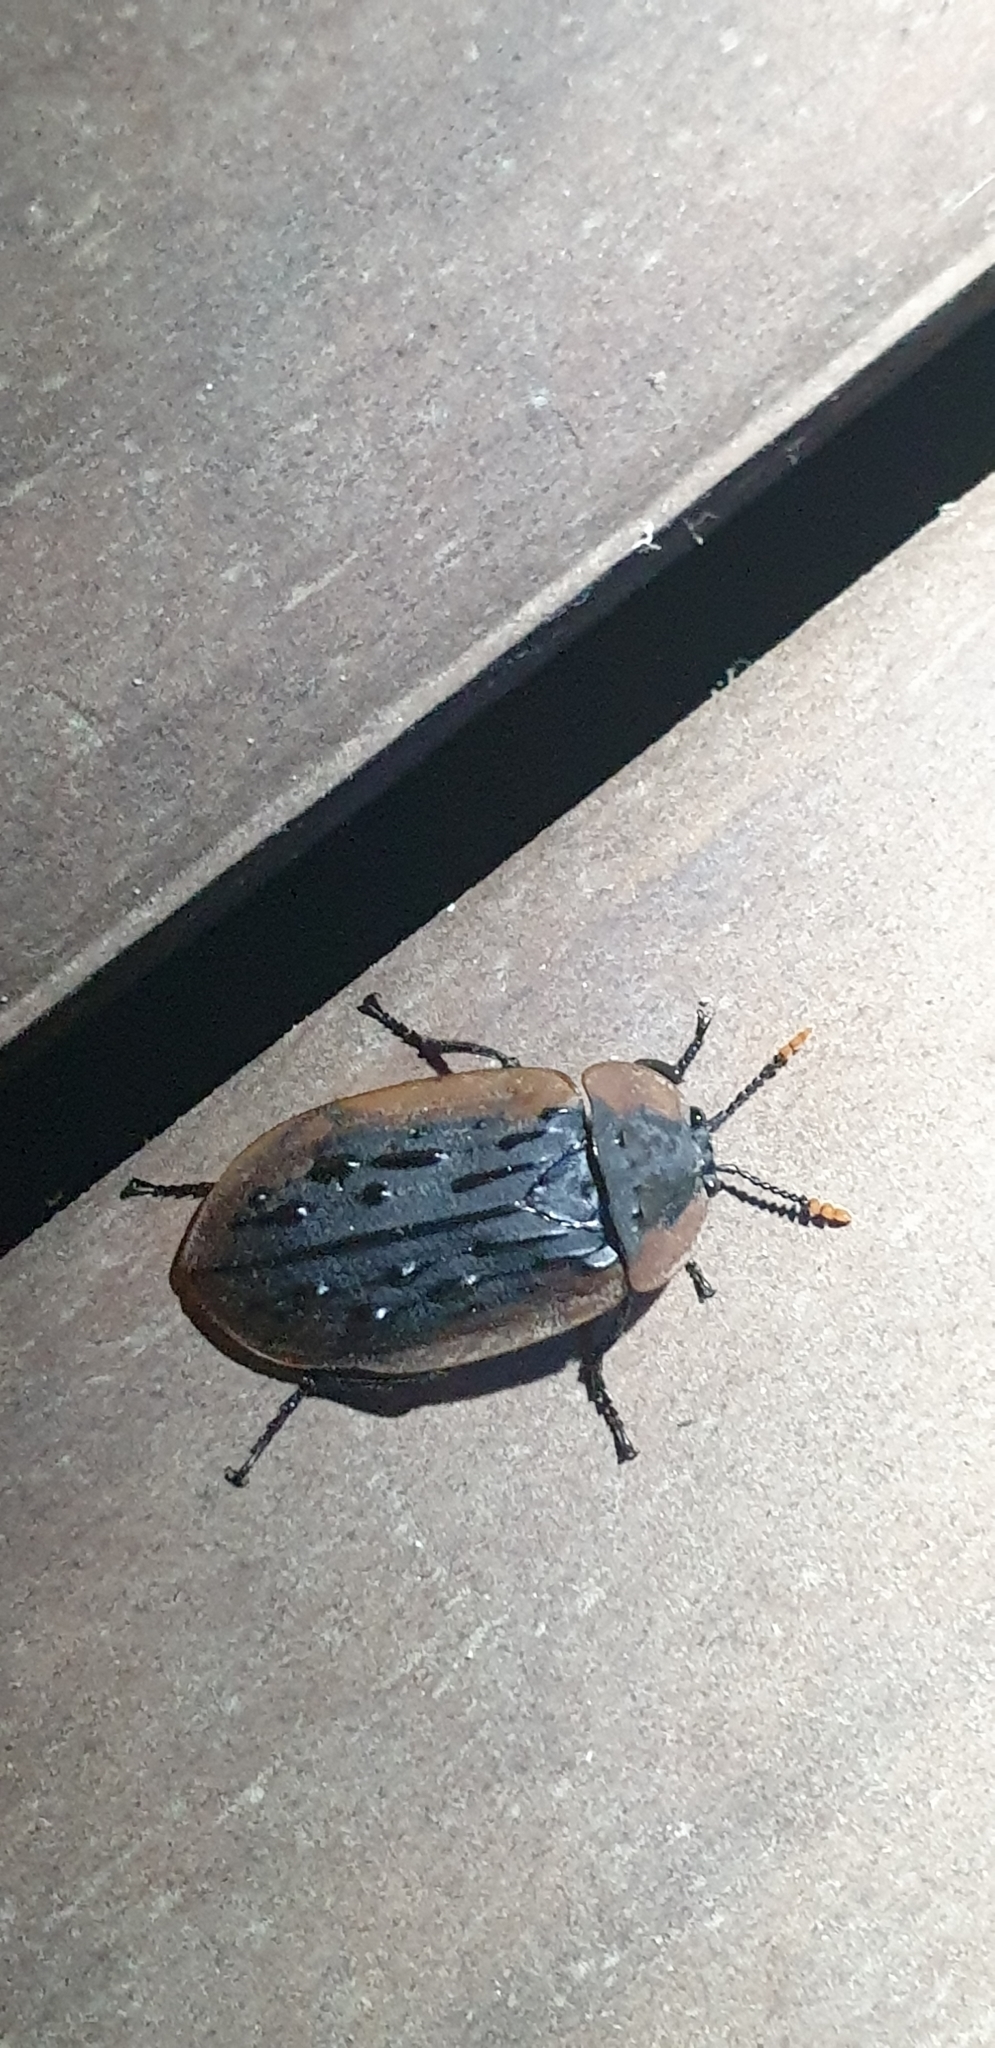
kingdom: Animalia
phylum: Arthropoda
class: Insecta
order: Coleoptera
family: Staphylinidae
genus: Ptomaphila
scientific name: Ptomaphila lacrymosa
